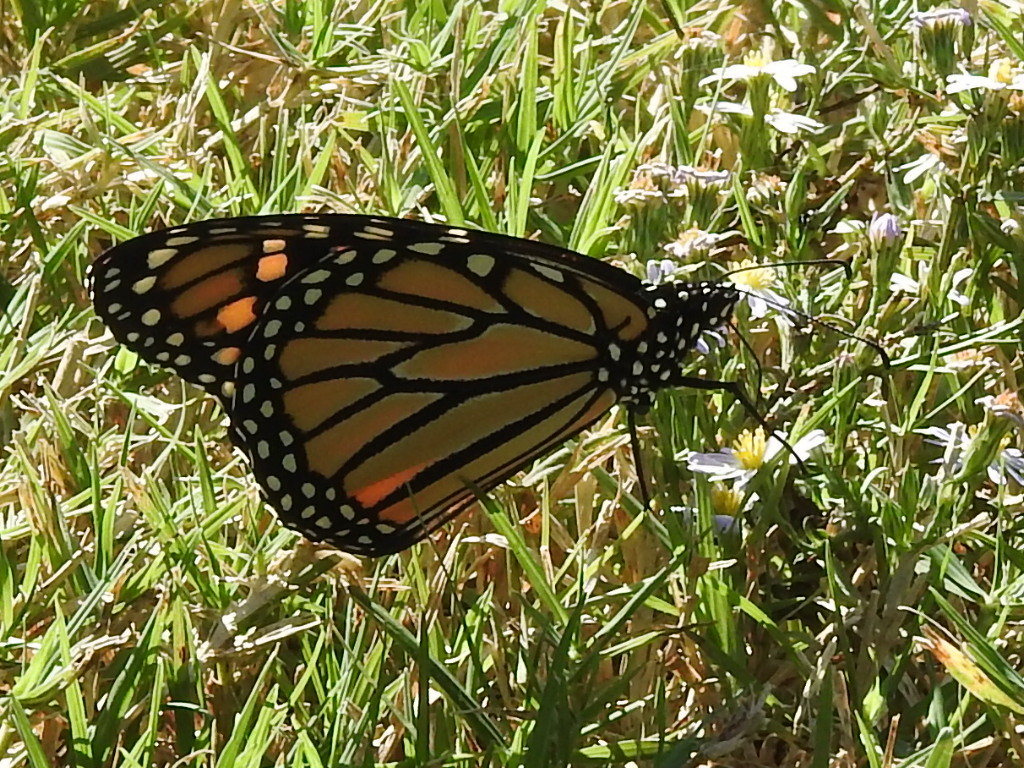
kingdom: Animalia
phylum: Arthropoda
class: Insecta
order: Lepidoptera
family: Nymphalidae
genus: Danaus
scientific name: Danaus plexippus
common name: Monarch
